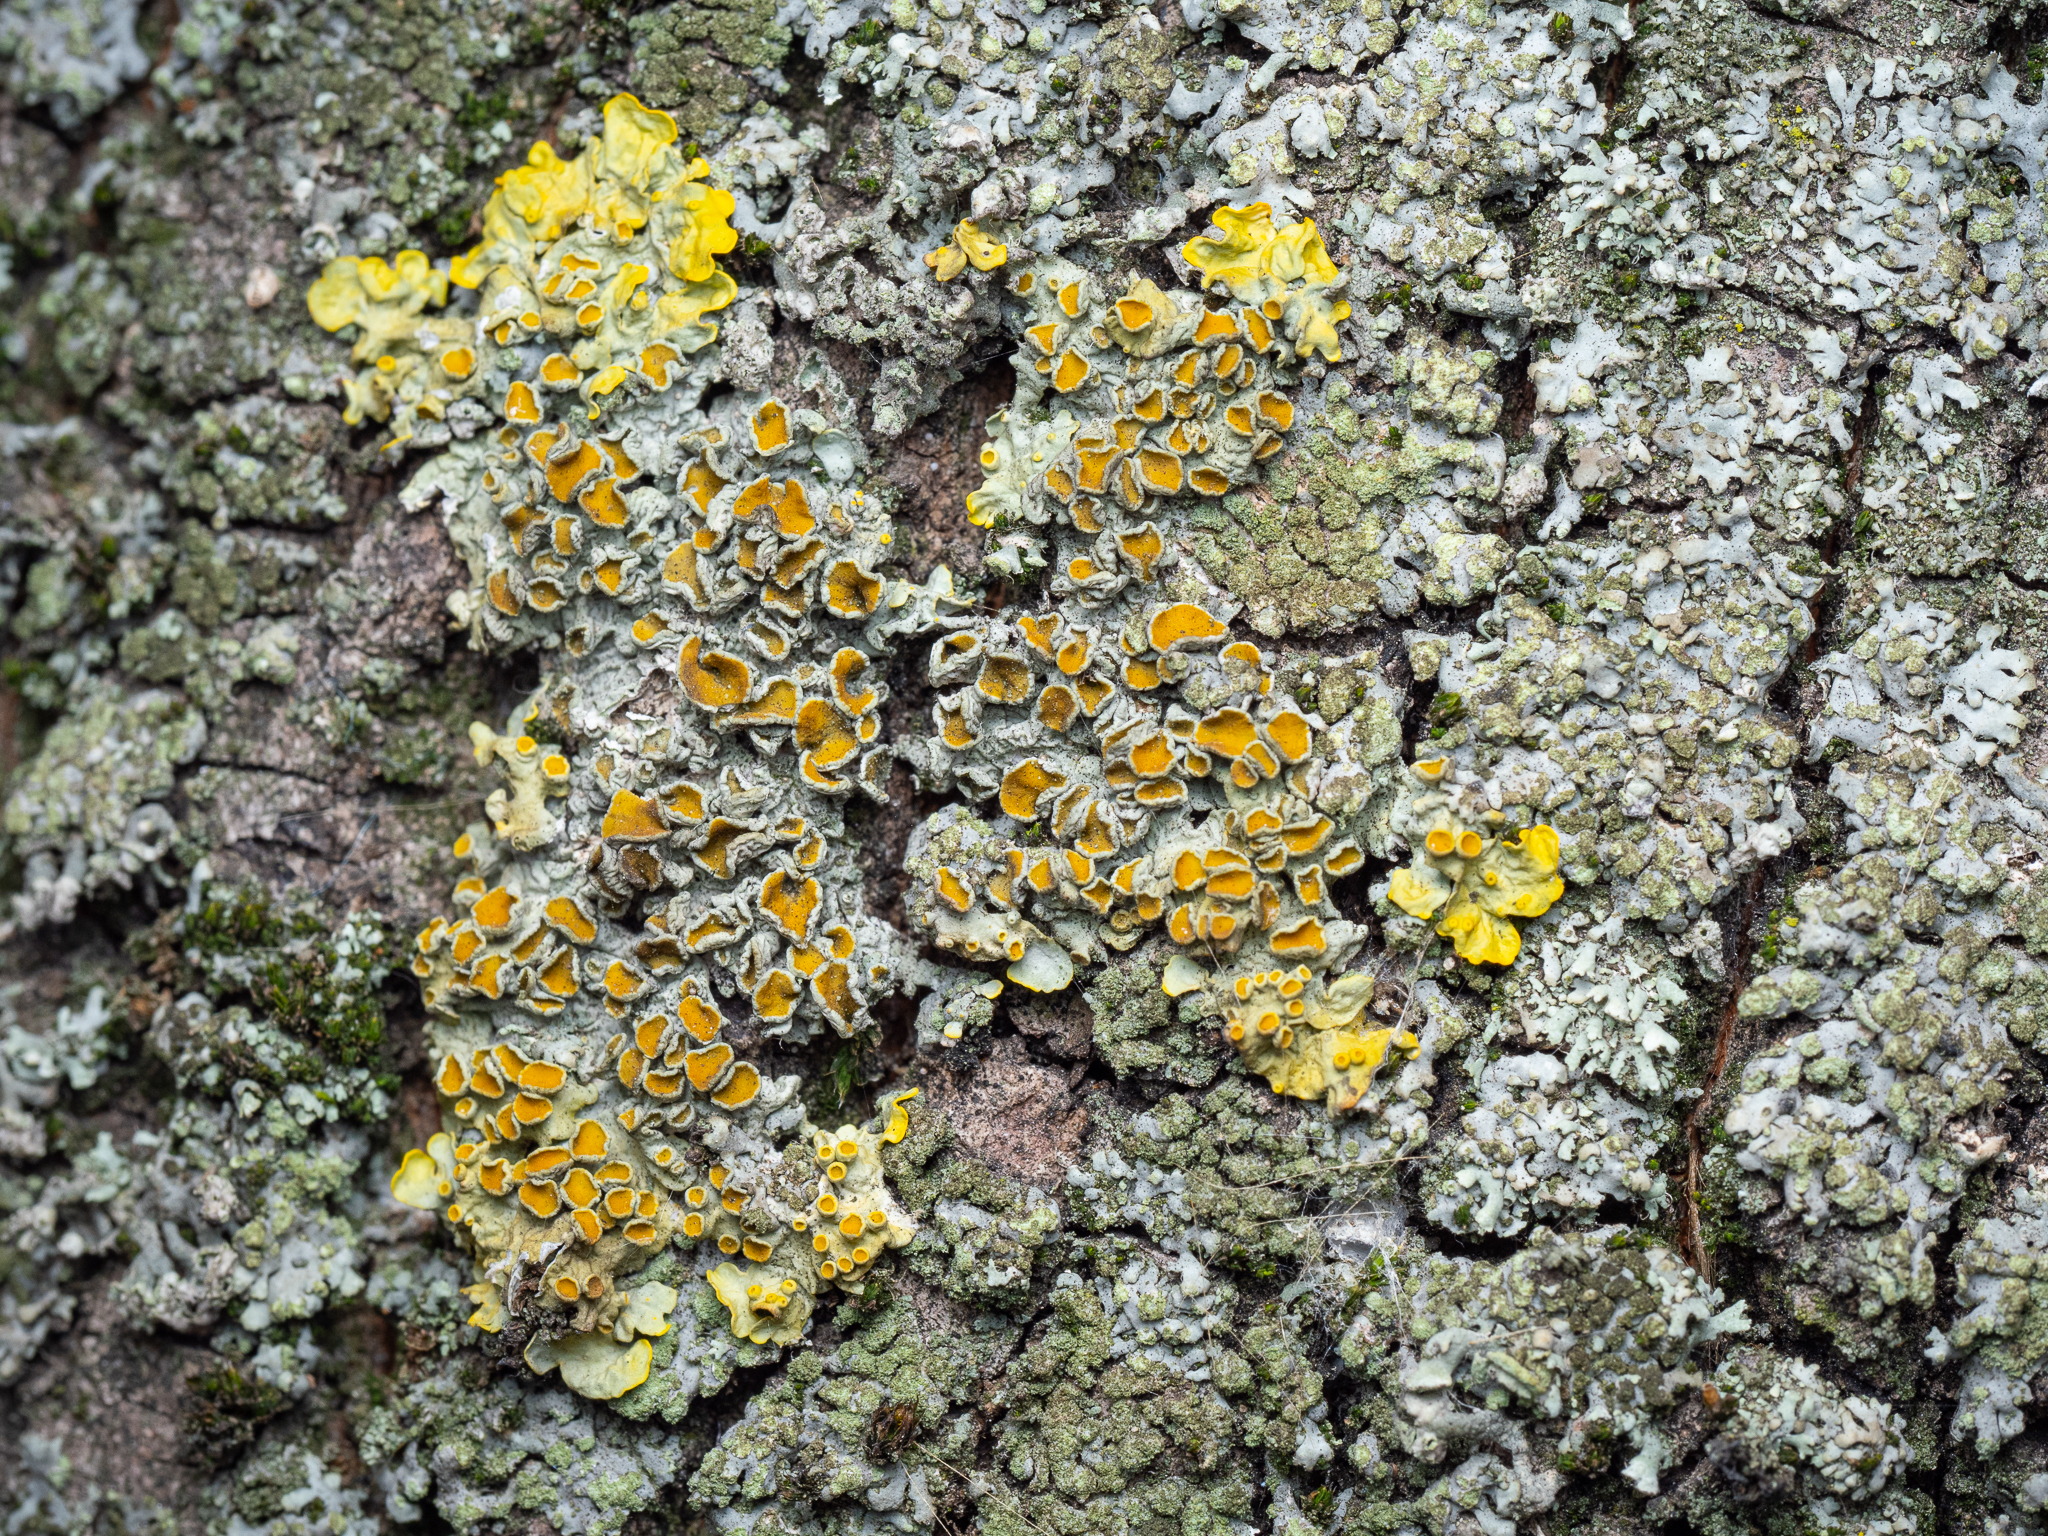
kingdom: Fungi
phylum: Ascomycota
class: Lecanoromycetes
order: Teloschistales
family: Teloschistaceae
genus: Xanthoria
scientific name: Xanthoria parietina
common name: Common orange lichen
